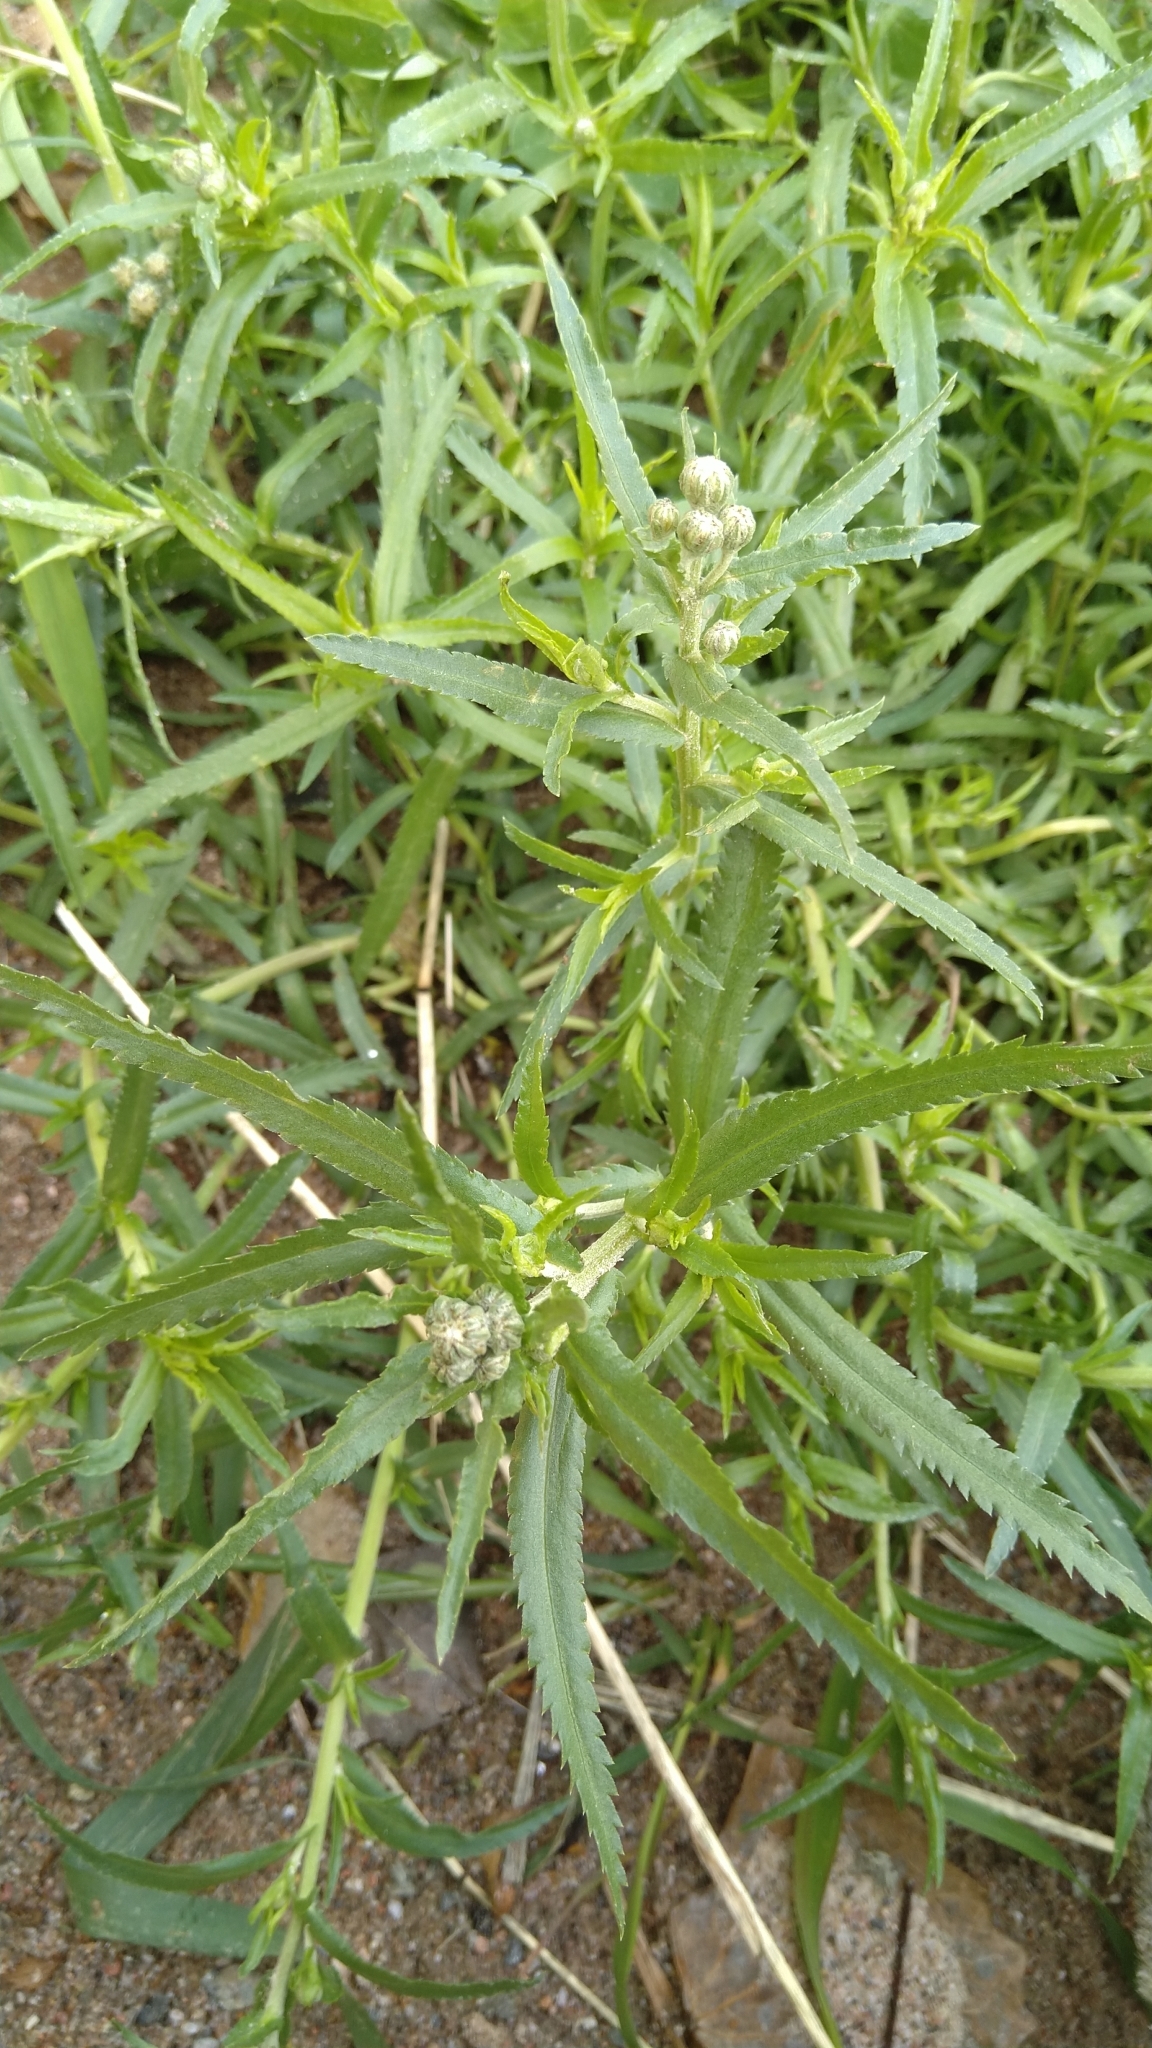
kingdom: Plantae
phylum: Tracheophyta
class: Magnoliopsida
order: Asterales
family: Asteraceae
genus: Achillea
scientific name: Achillea ptarmica
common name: Sneezeweed
